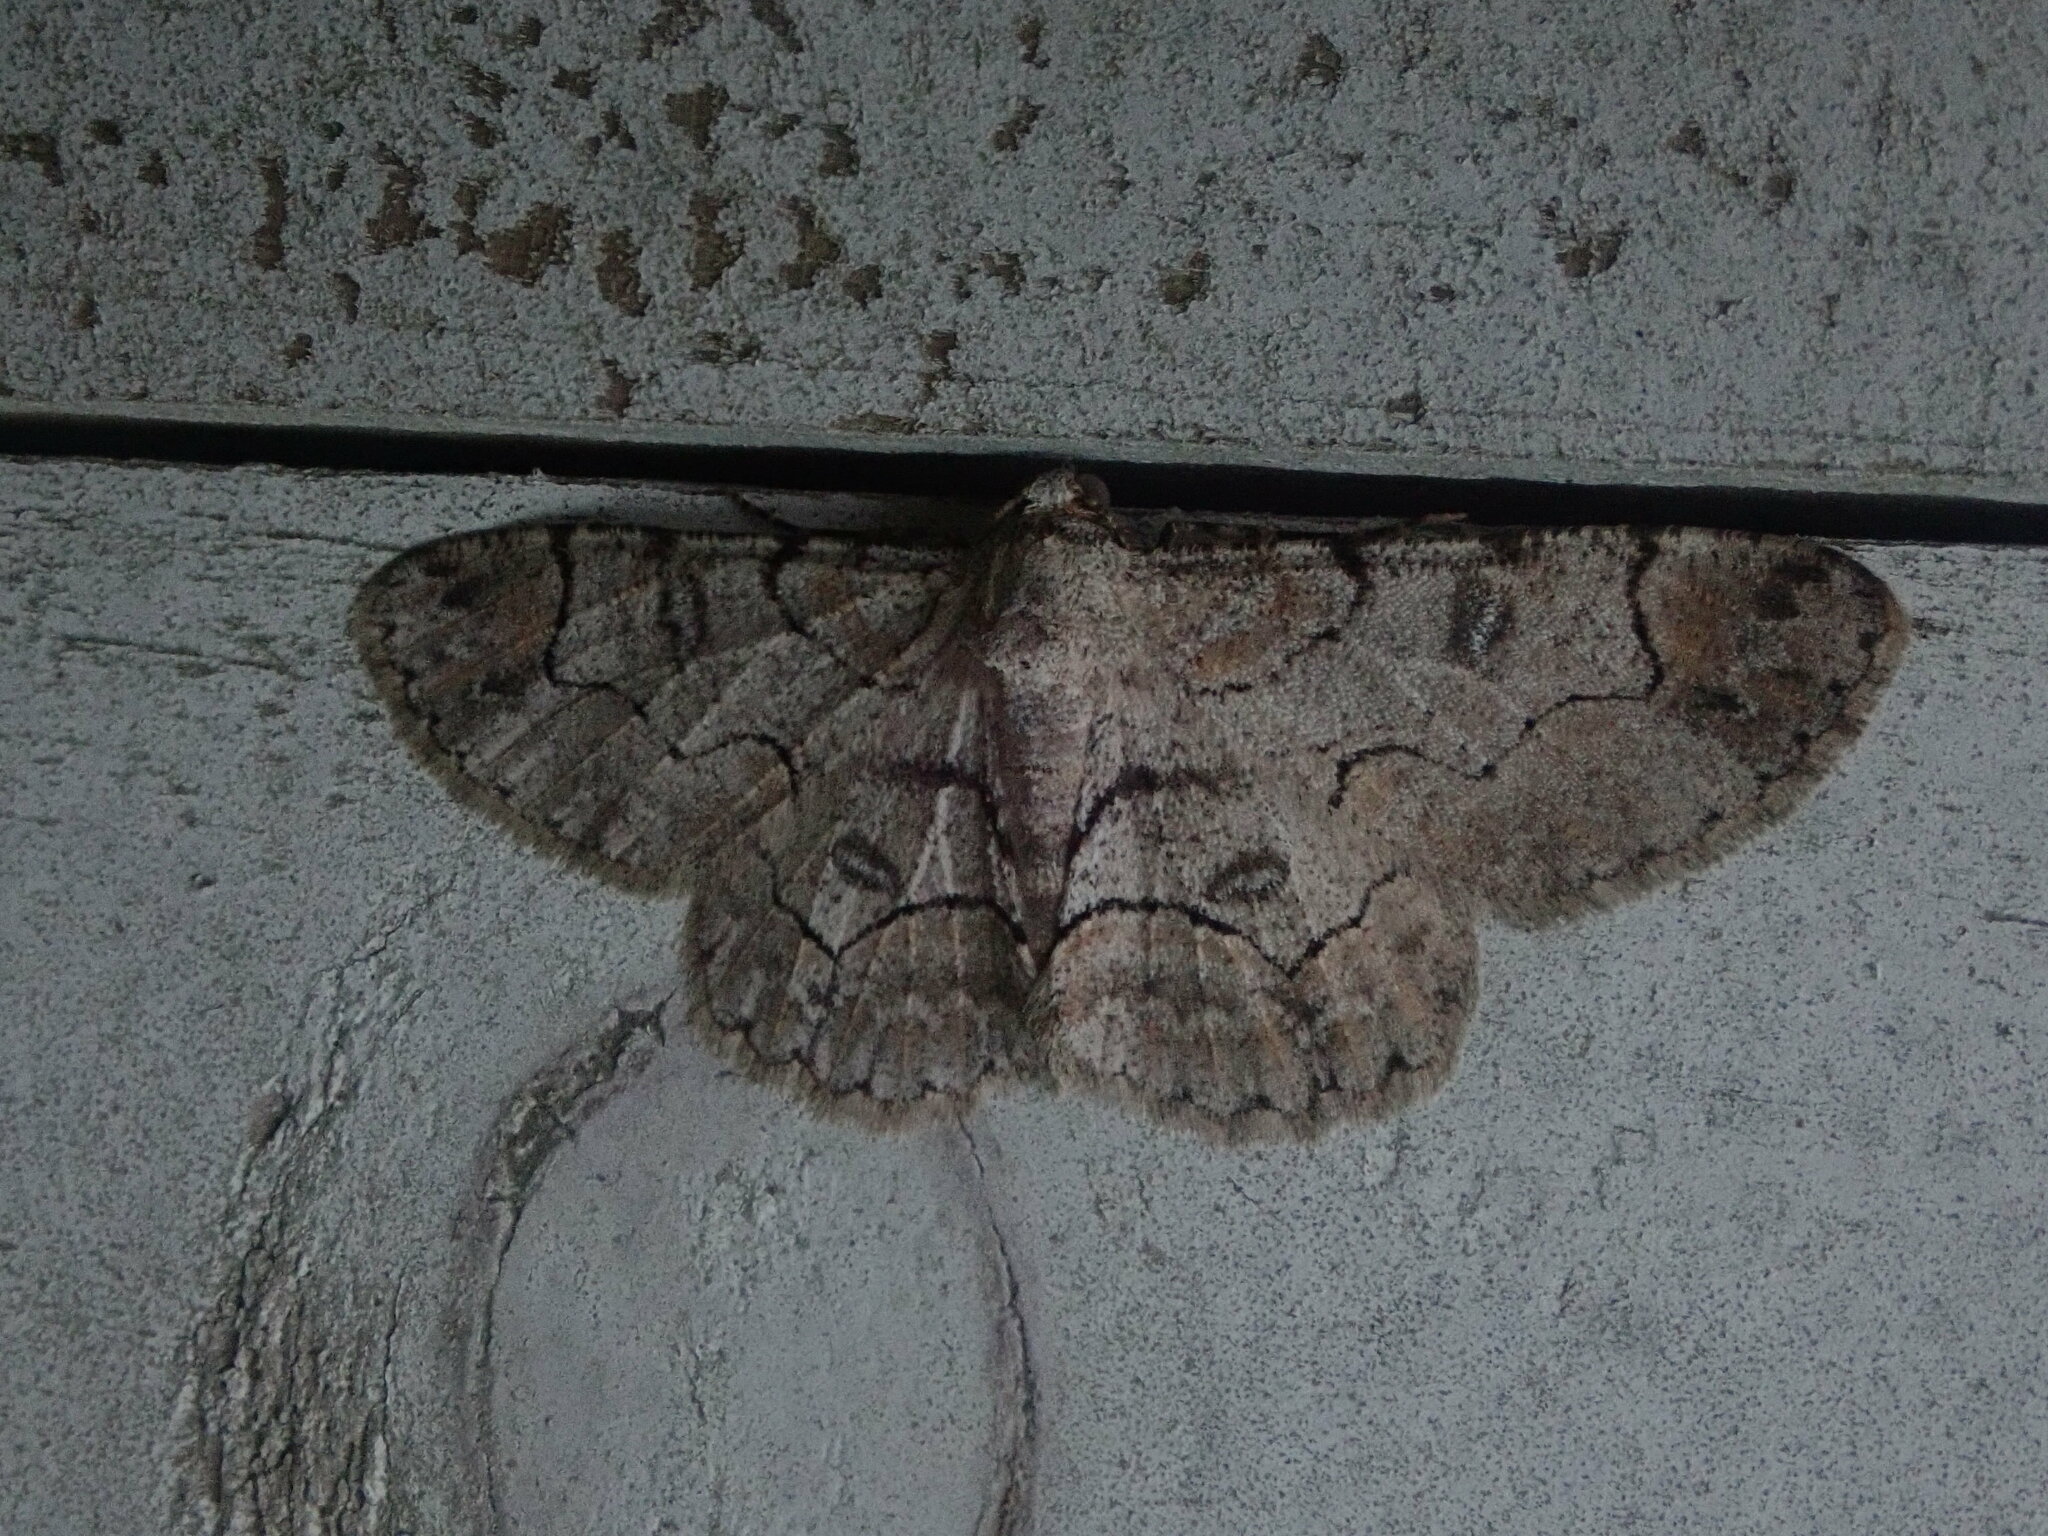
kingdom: Animalia
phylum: Arthropoda
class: Insecta
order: Lepidoptera
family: Geometridae
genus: Iridopsis
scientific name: Iridopsis larvaria
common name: Bent-line gray
